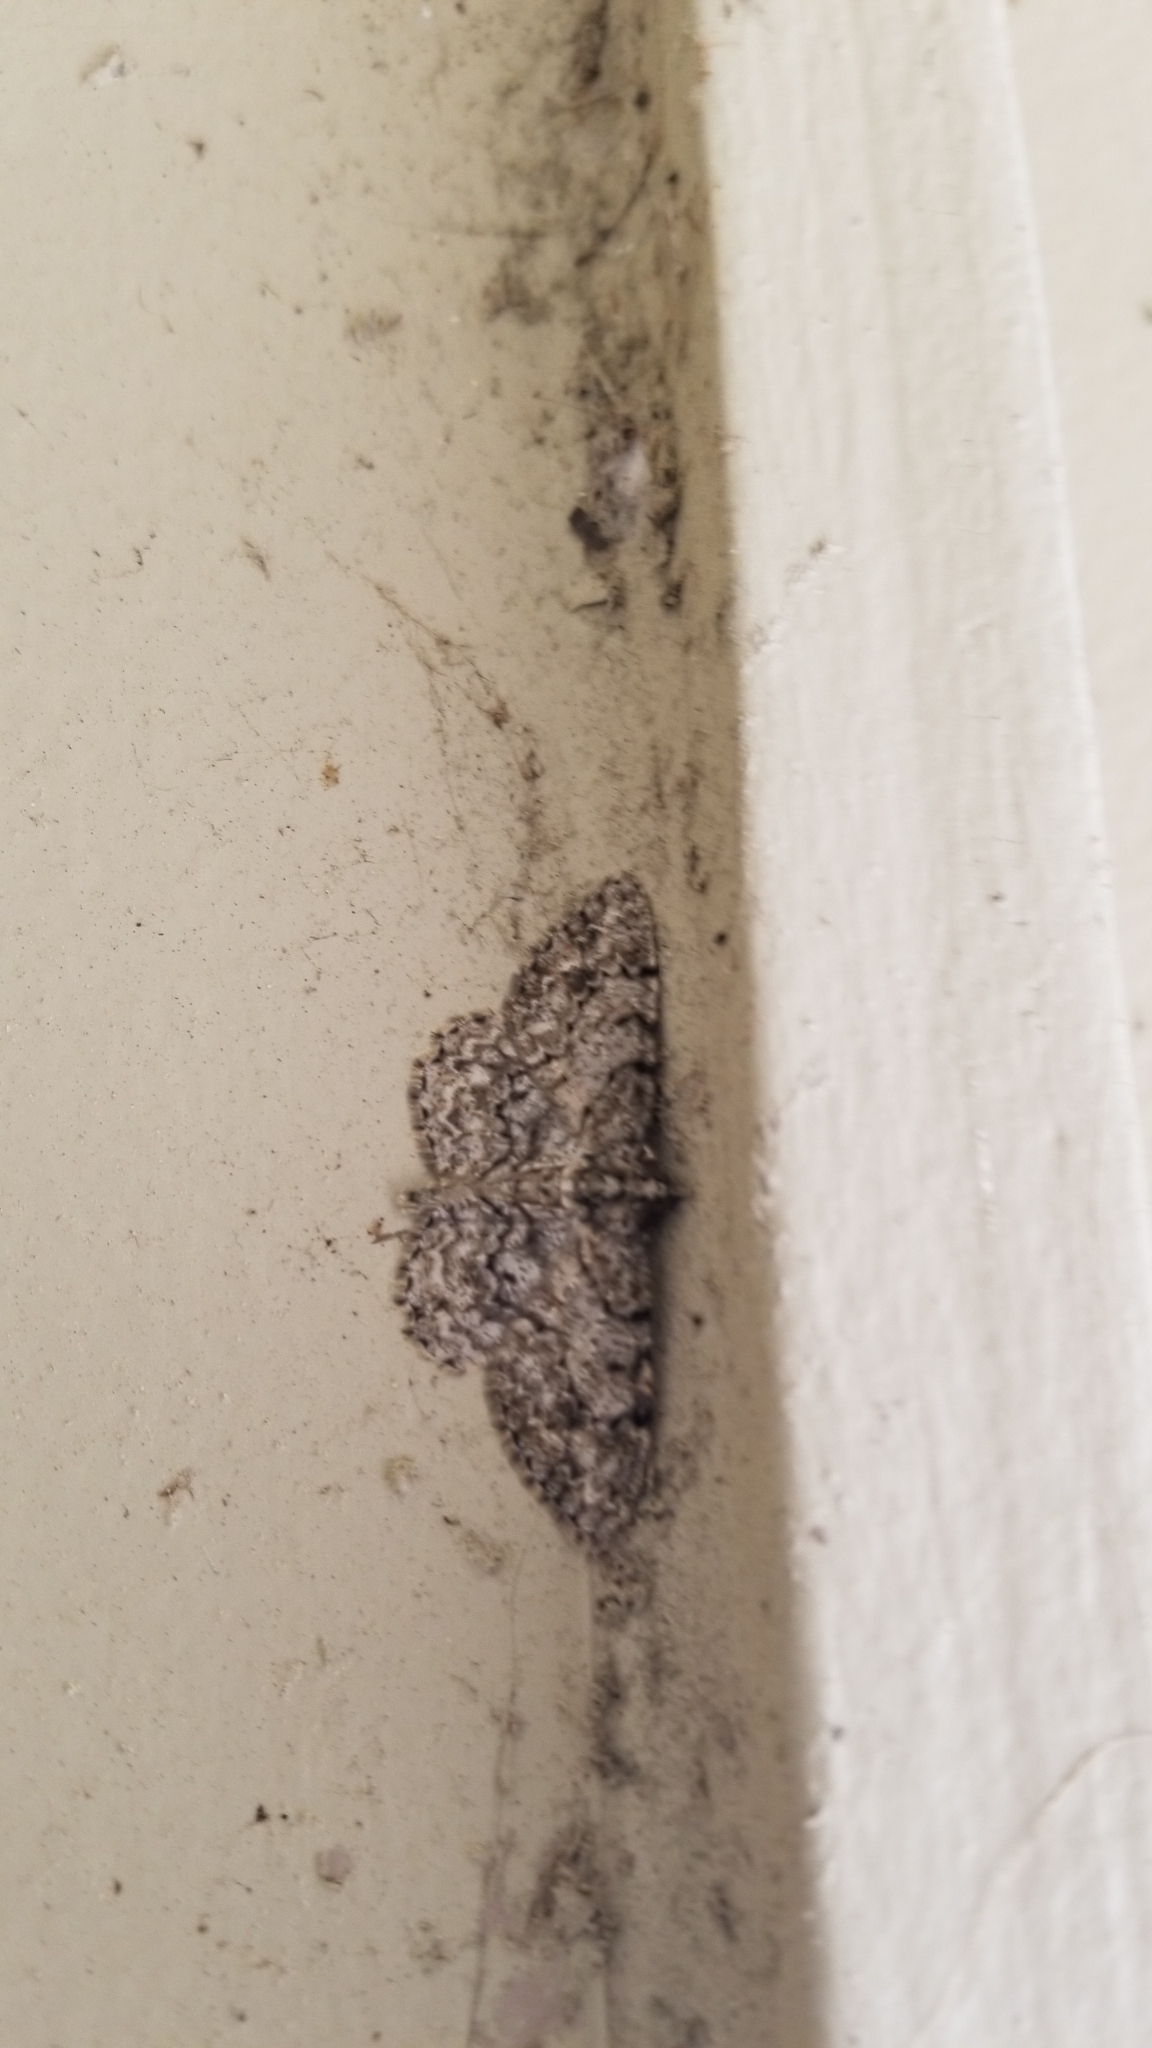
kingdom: Animalia
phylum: Arthropoda
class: Insecta
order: Lepidoptera
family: Geometridae
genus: Protoboarmia
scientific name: Protoboarmia porcelaria
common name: Porcelain gray
